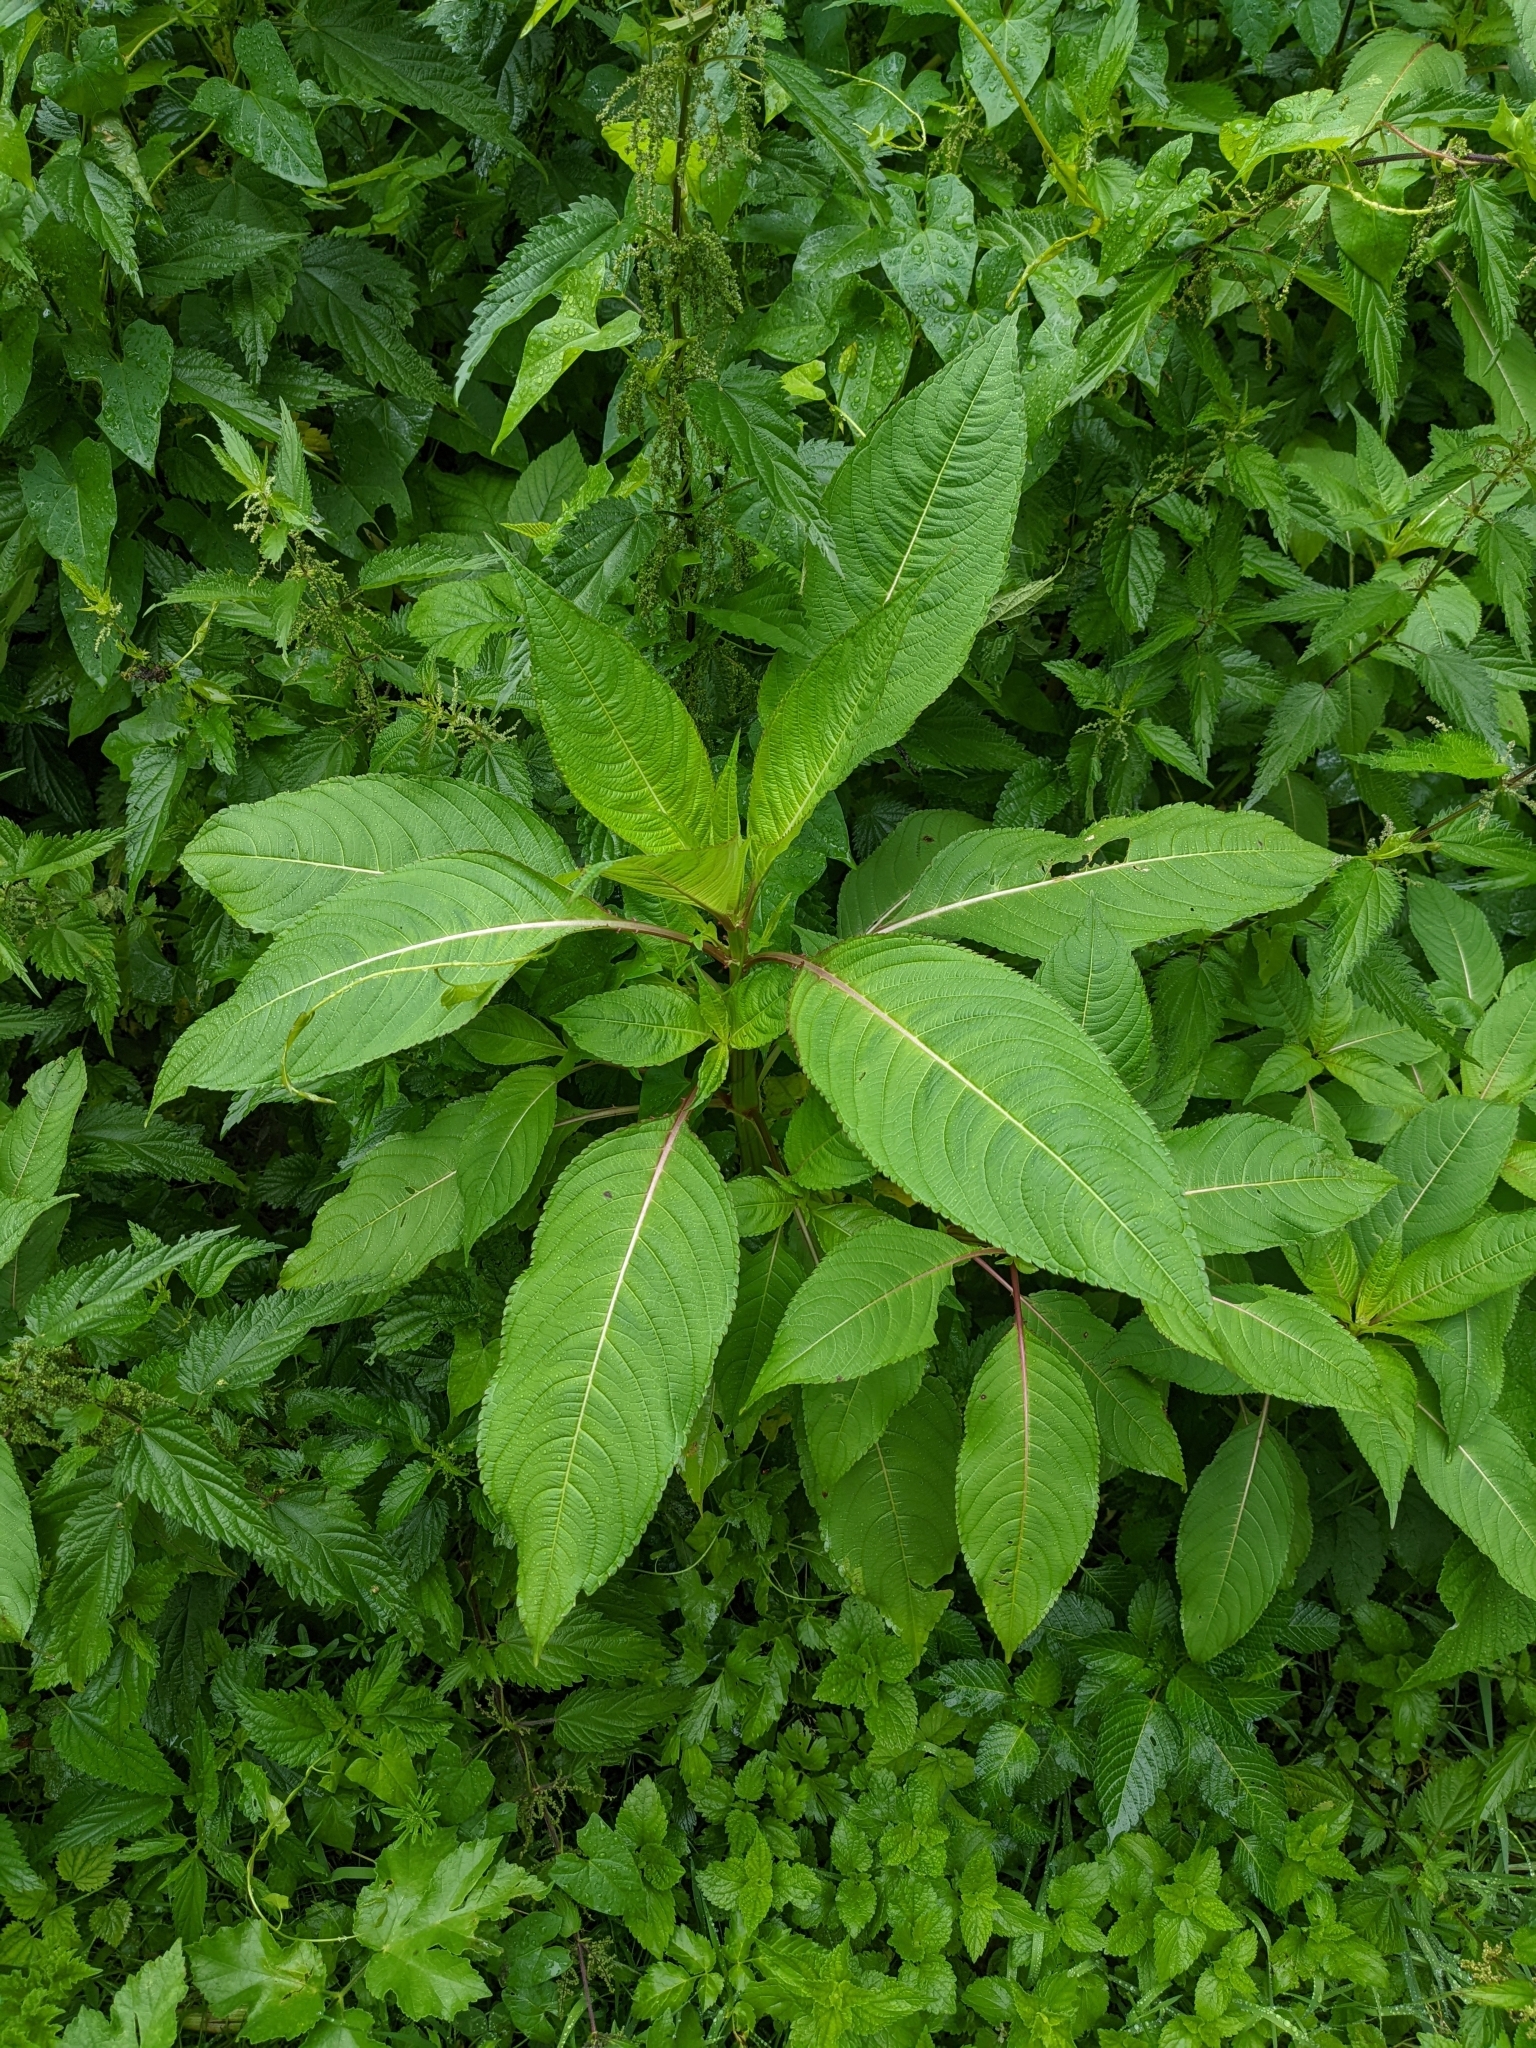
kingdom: Plantae
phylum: Tracheophyta
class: Magnoliopsida
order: Ericales
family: Balsaminaceae
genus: Impatiens
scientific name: Impatiens glandulifera
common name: Himalayan balsam
